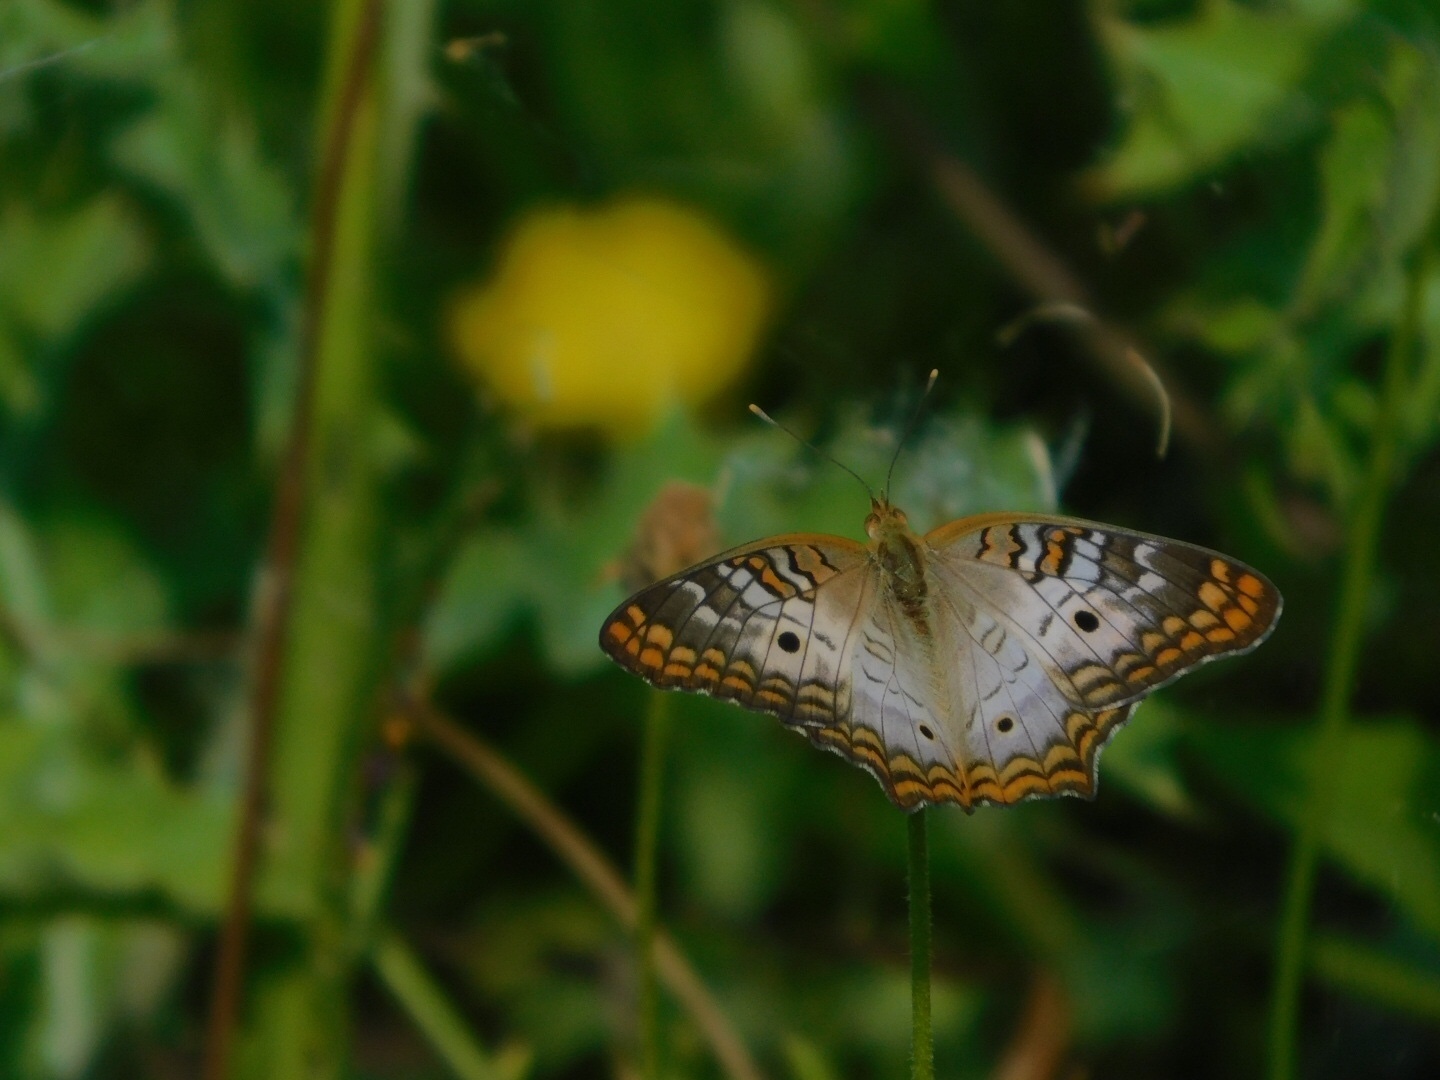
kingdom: Animalia
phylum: Arthropoda
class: Insecta
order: Lepidoptera
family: Nymphalidae
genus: Anartia
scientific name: Anartia jatrophae
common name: White peacock
